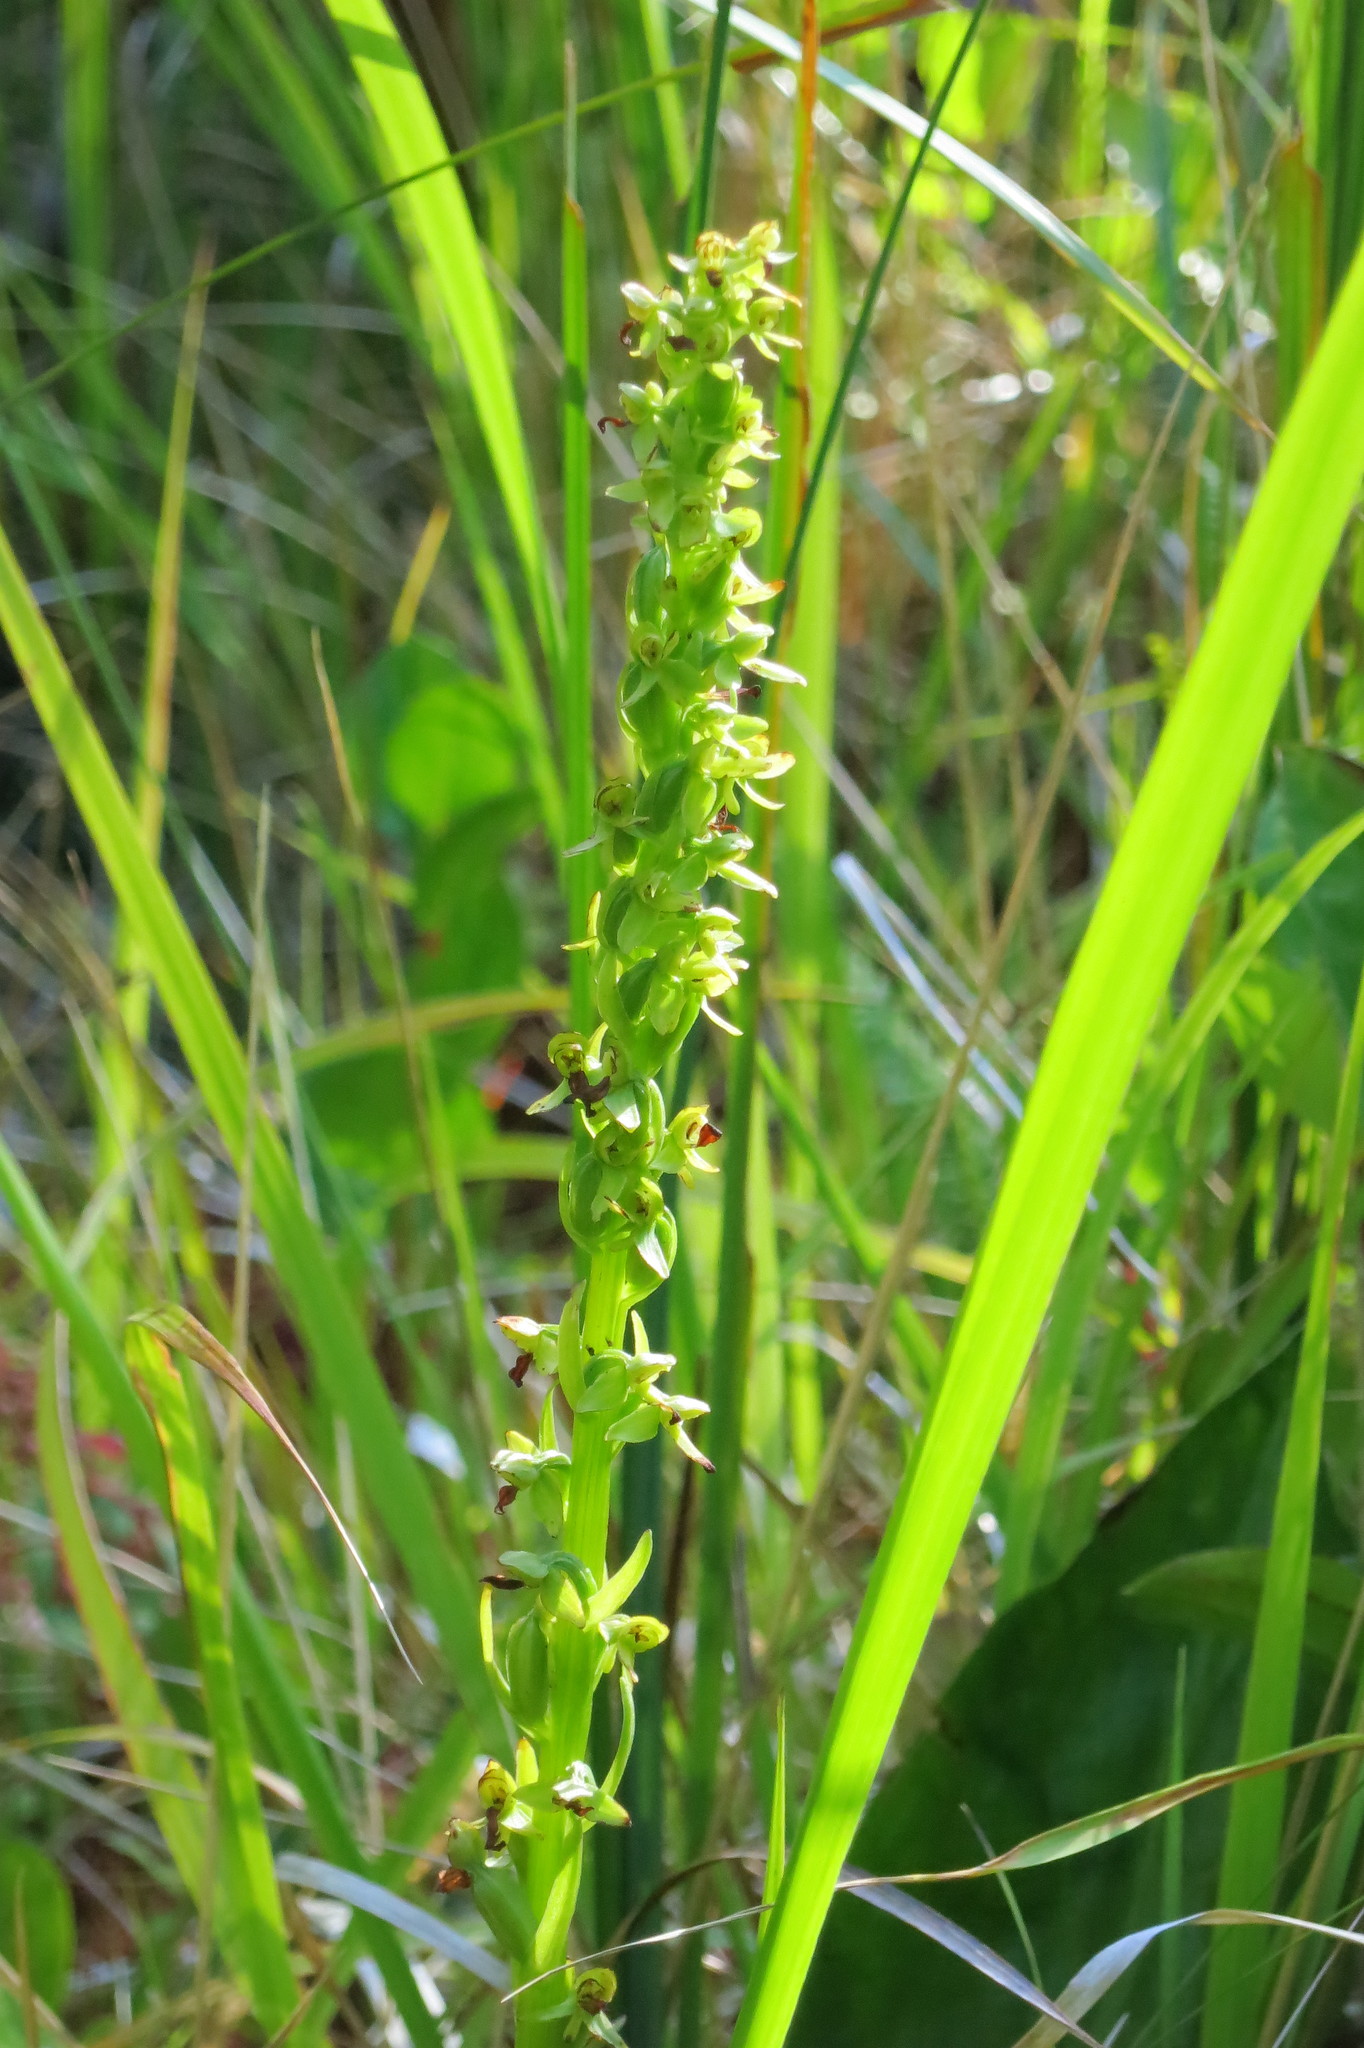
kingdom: Plantae
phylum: Tracheophyta
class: Liliopsida
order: Asparagales
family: Orchidaceae
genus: Platanthera
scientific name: Platanthera stricta
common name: Slender bog orchid
